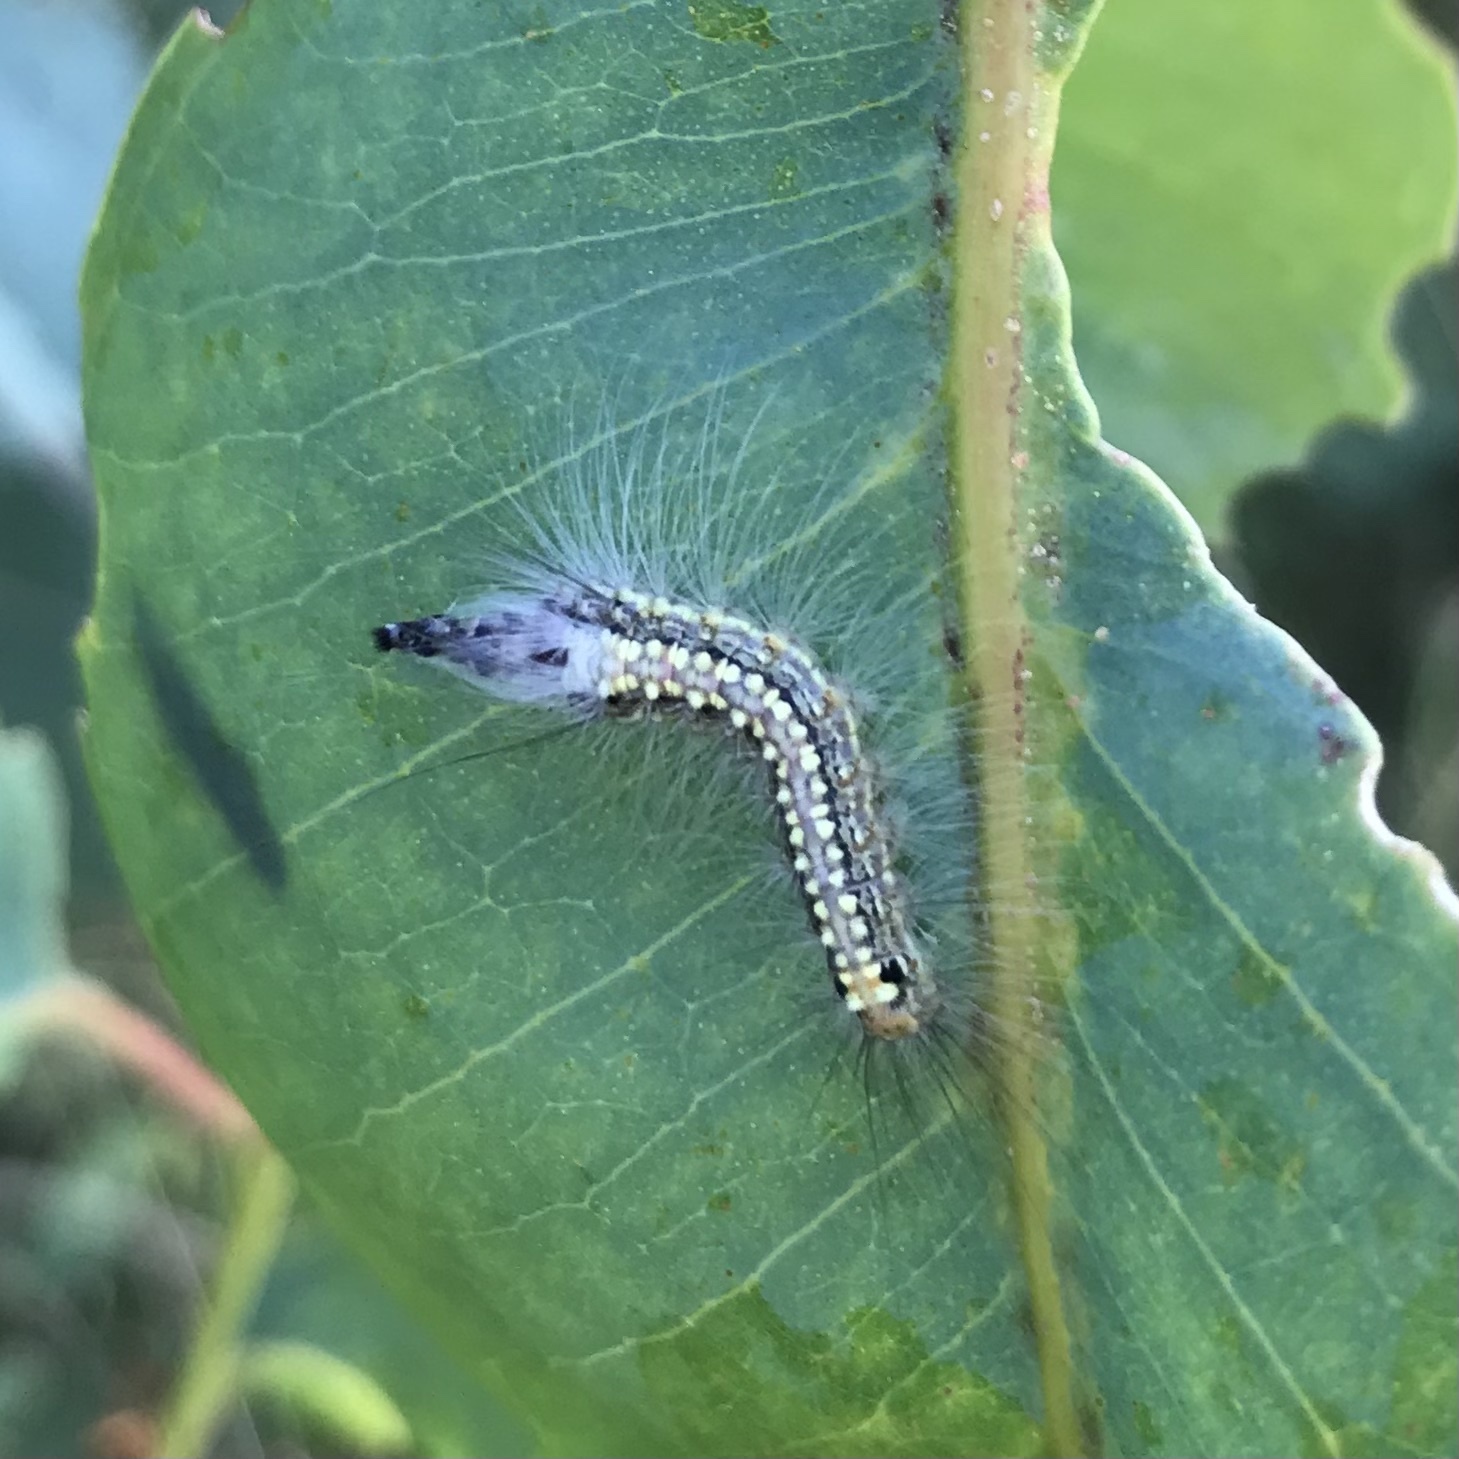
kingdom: Animalia
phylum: Arthropoda
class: Insecta
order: Lepidoptera
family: Nolidae
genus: Uraba
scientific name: Uraba lugens
